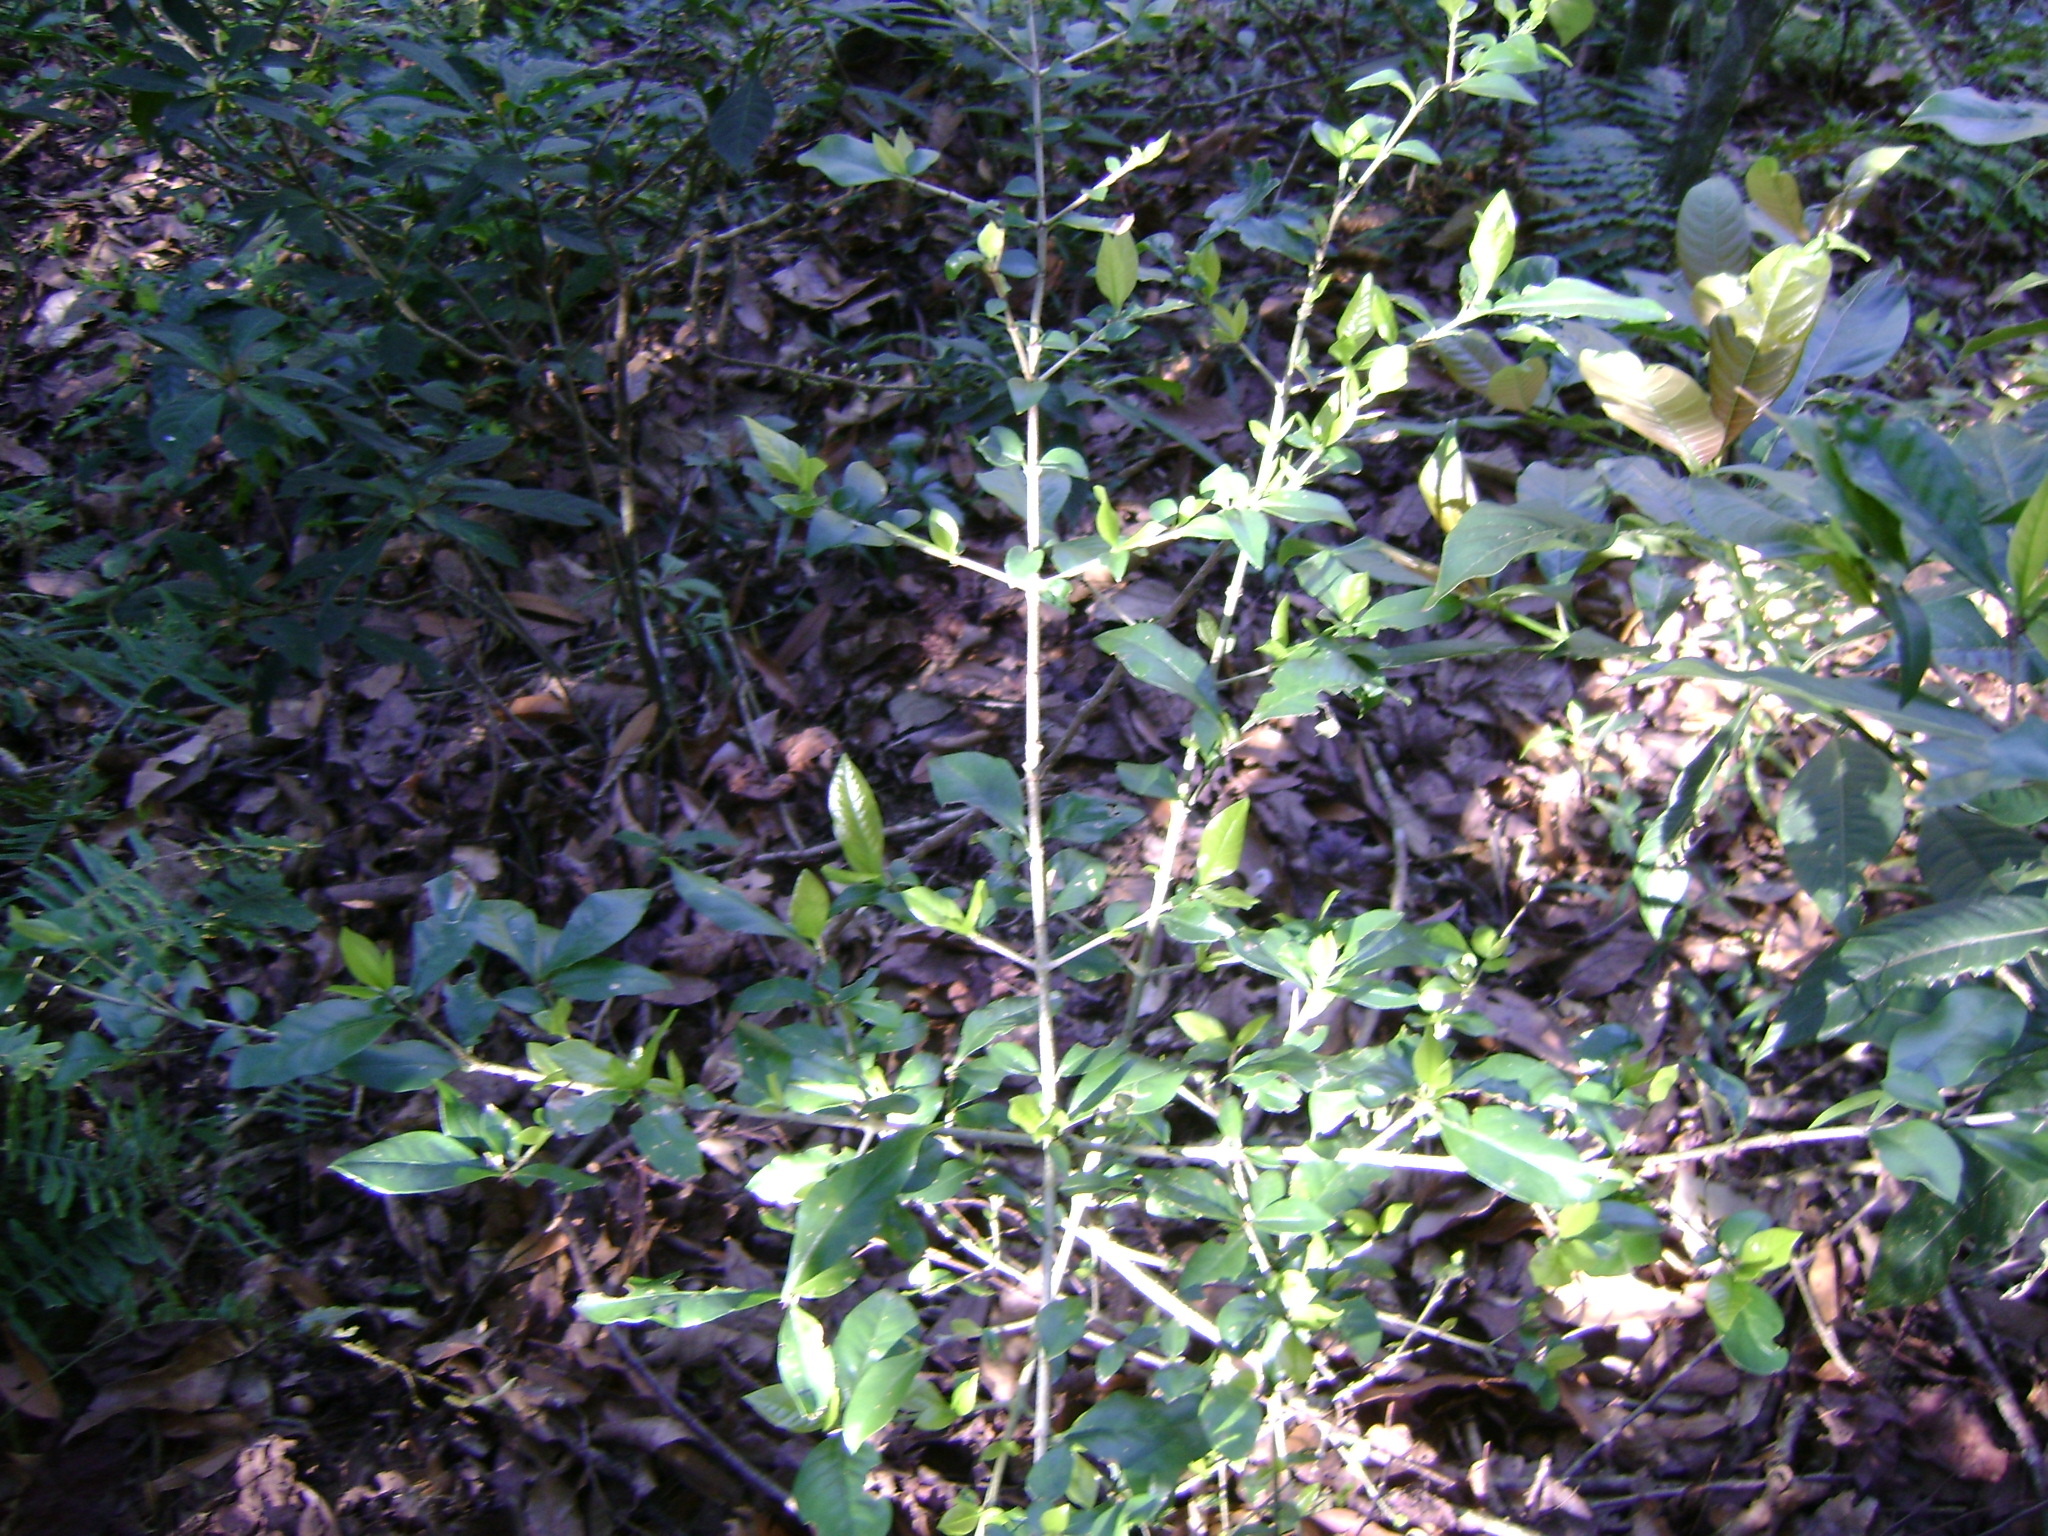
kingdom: Plantae
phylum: Tracheophyta
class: Magnoliopsida
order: Gentianales
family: Rubiaceae
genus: Randia
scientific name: Randia xalapensis
